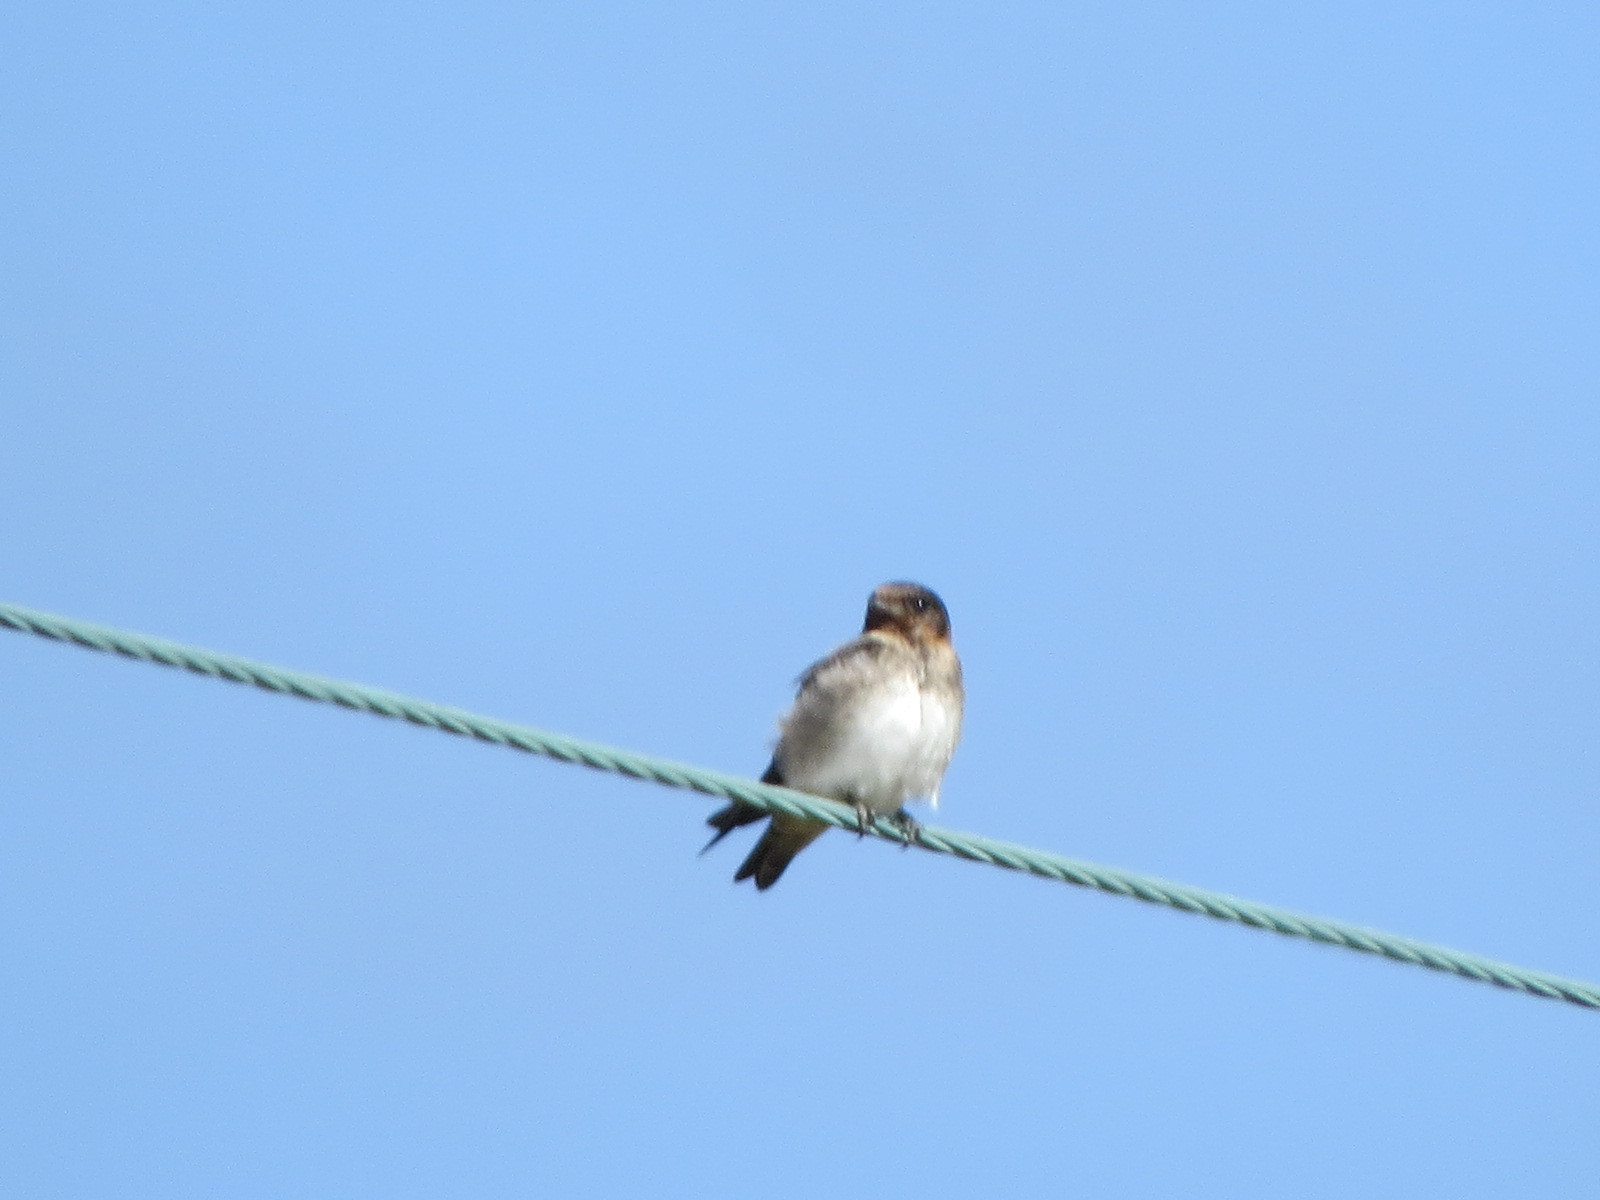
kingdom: Animalia
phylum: Chordata
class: Aves
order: Passeriformes
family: Hirundinidae
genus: Petrochelidon
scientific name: Petrochelidon pyrrhonota
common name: American cliff swallow
